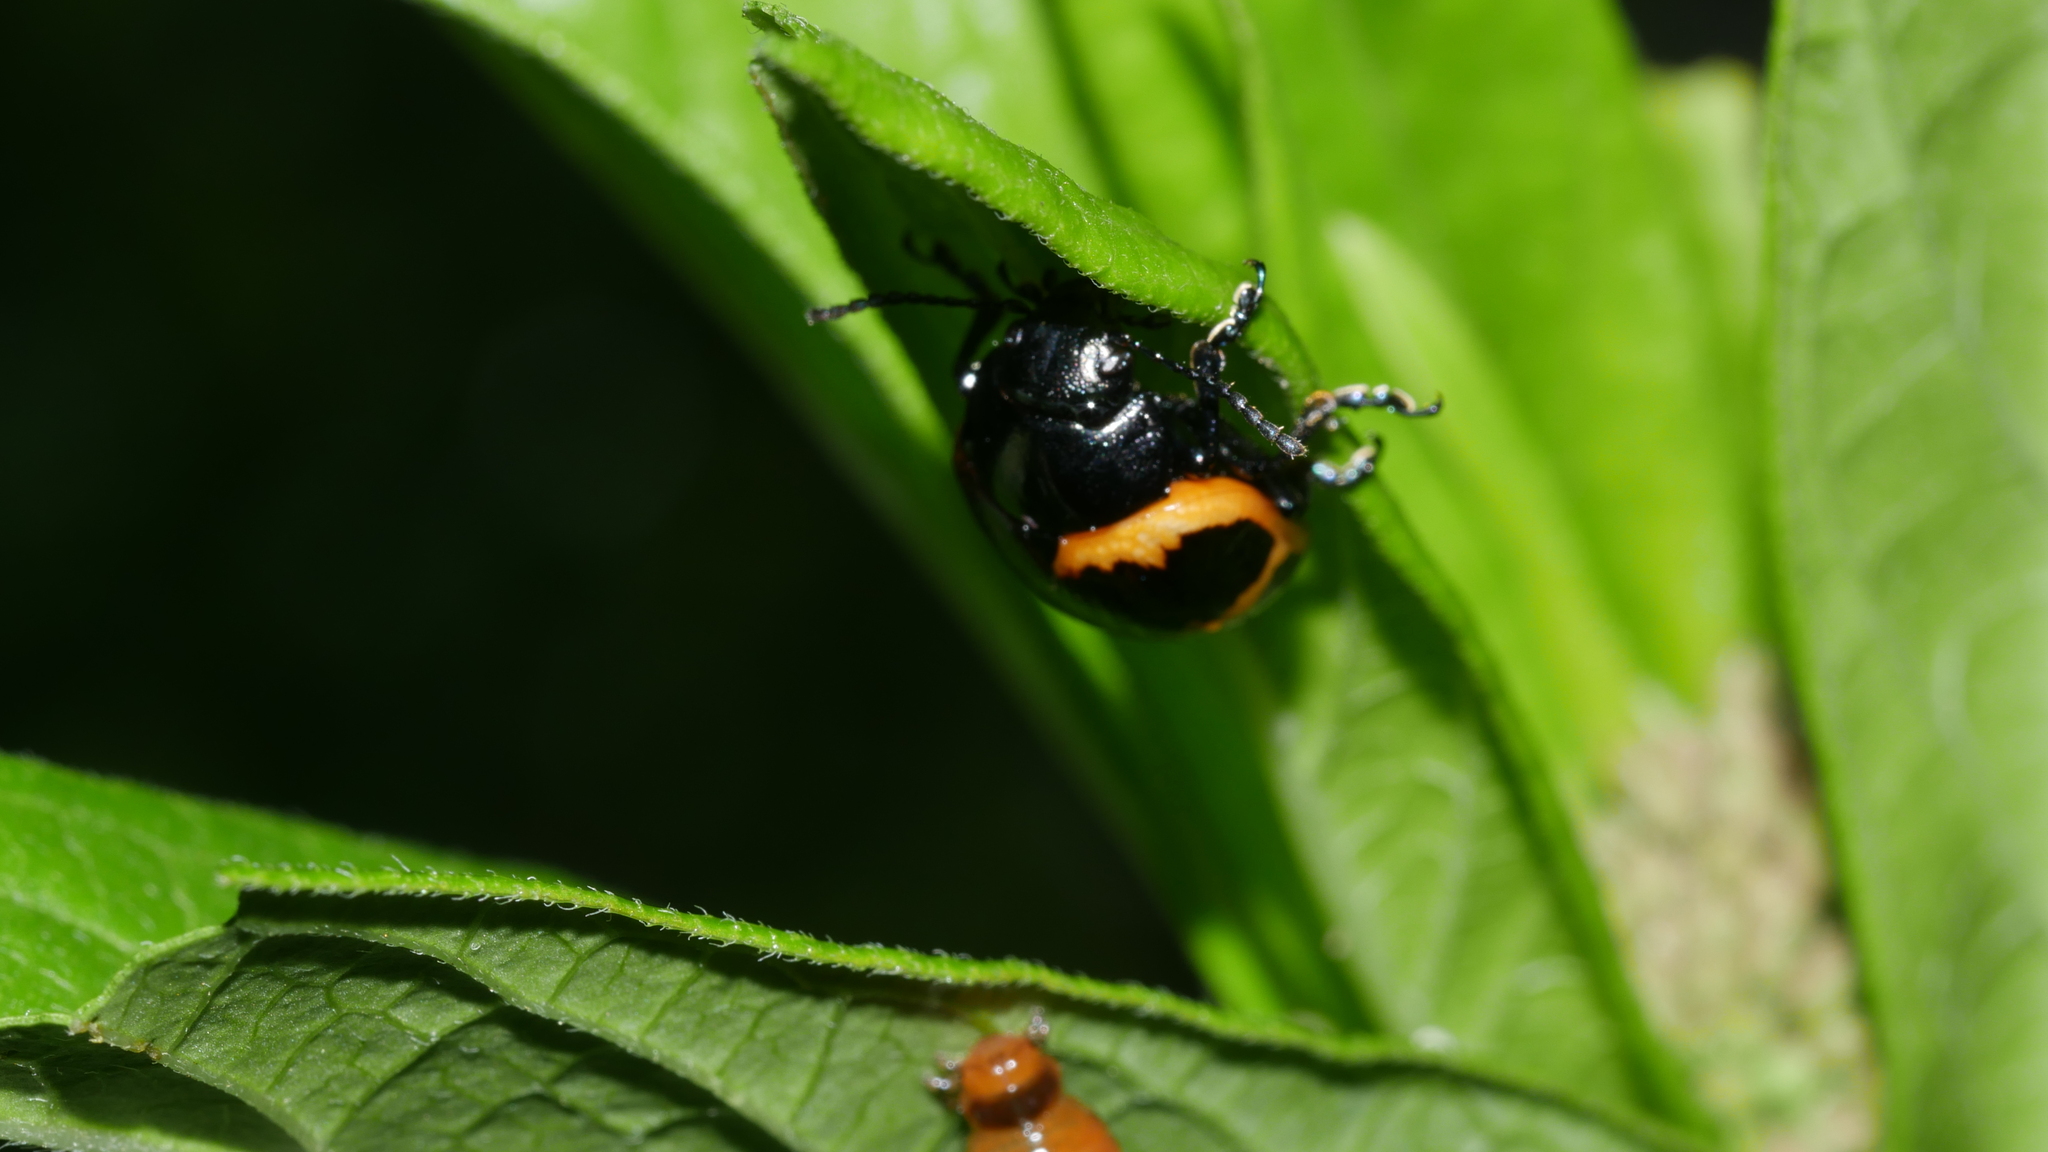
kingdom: Animalia
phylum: Arthropoda
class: Insecta
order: Coleoptera
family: Chrysomelidae
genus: Labidomera
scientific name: Labidomera clivicollis
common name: Swamp milkweed leaf beetle
